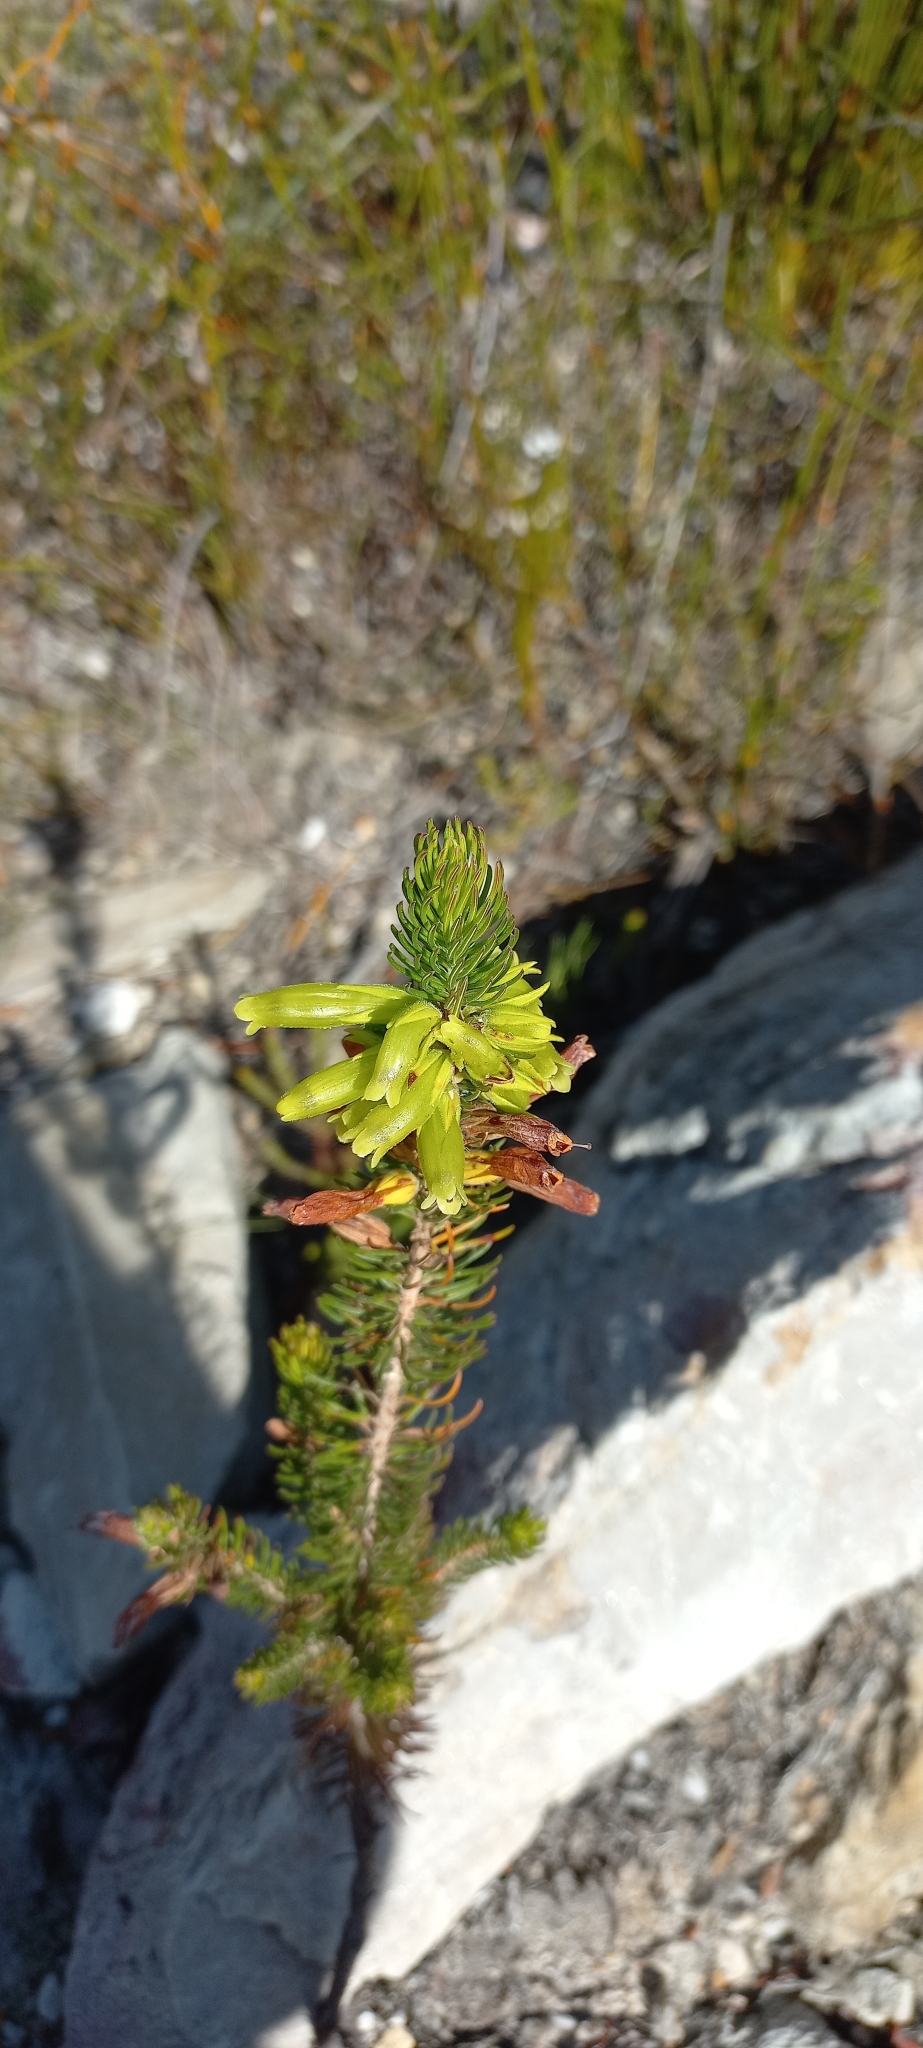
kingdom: Plantae
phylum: Tracheophyta
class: Magnoliopsida
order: Ericales
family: Ericaceae
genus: Erica
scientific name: Erica viscaria
